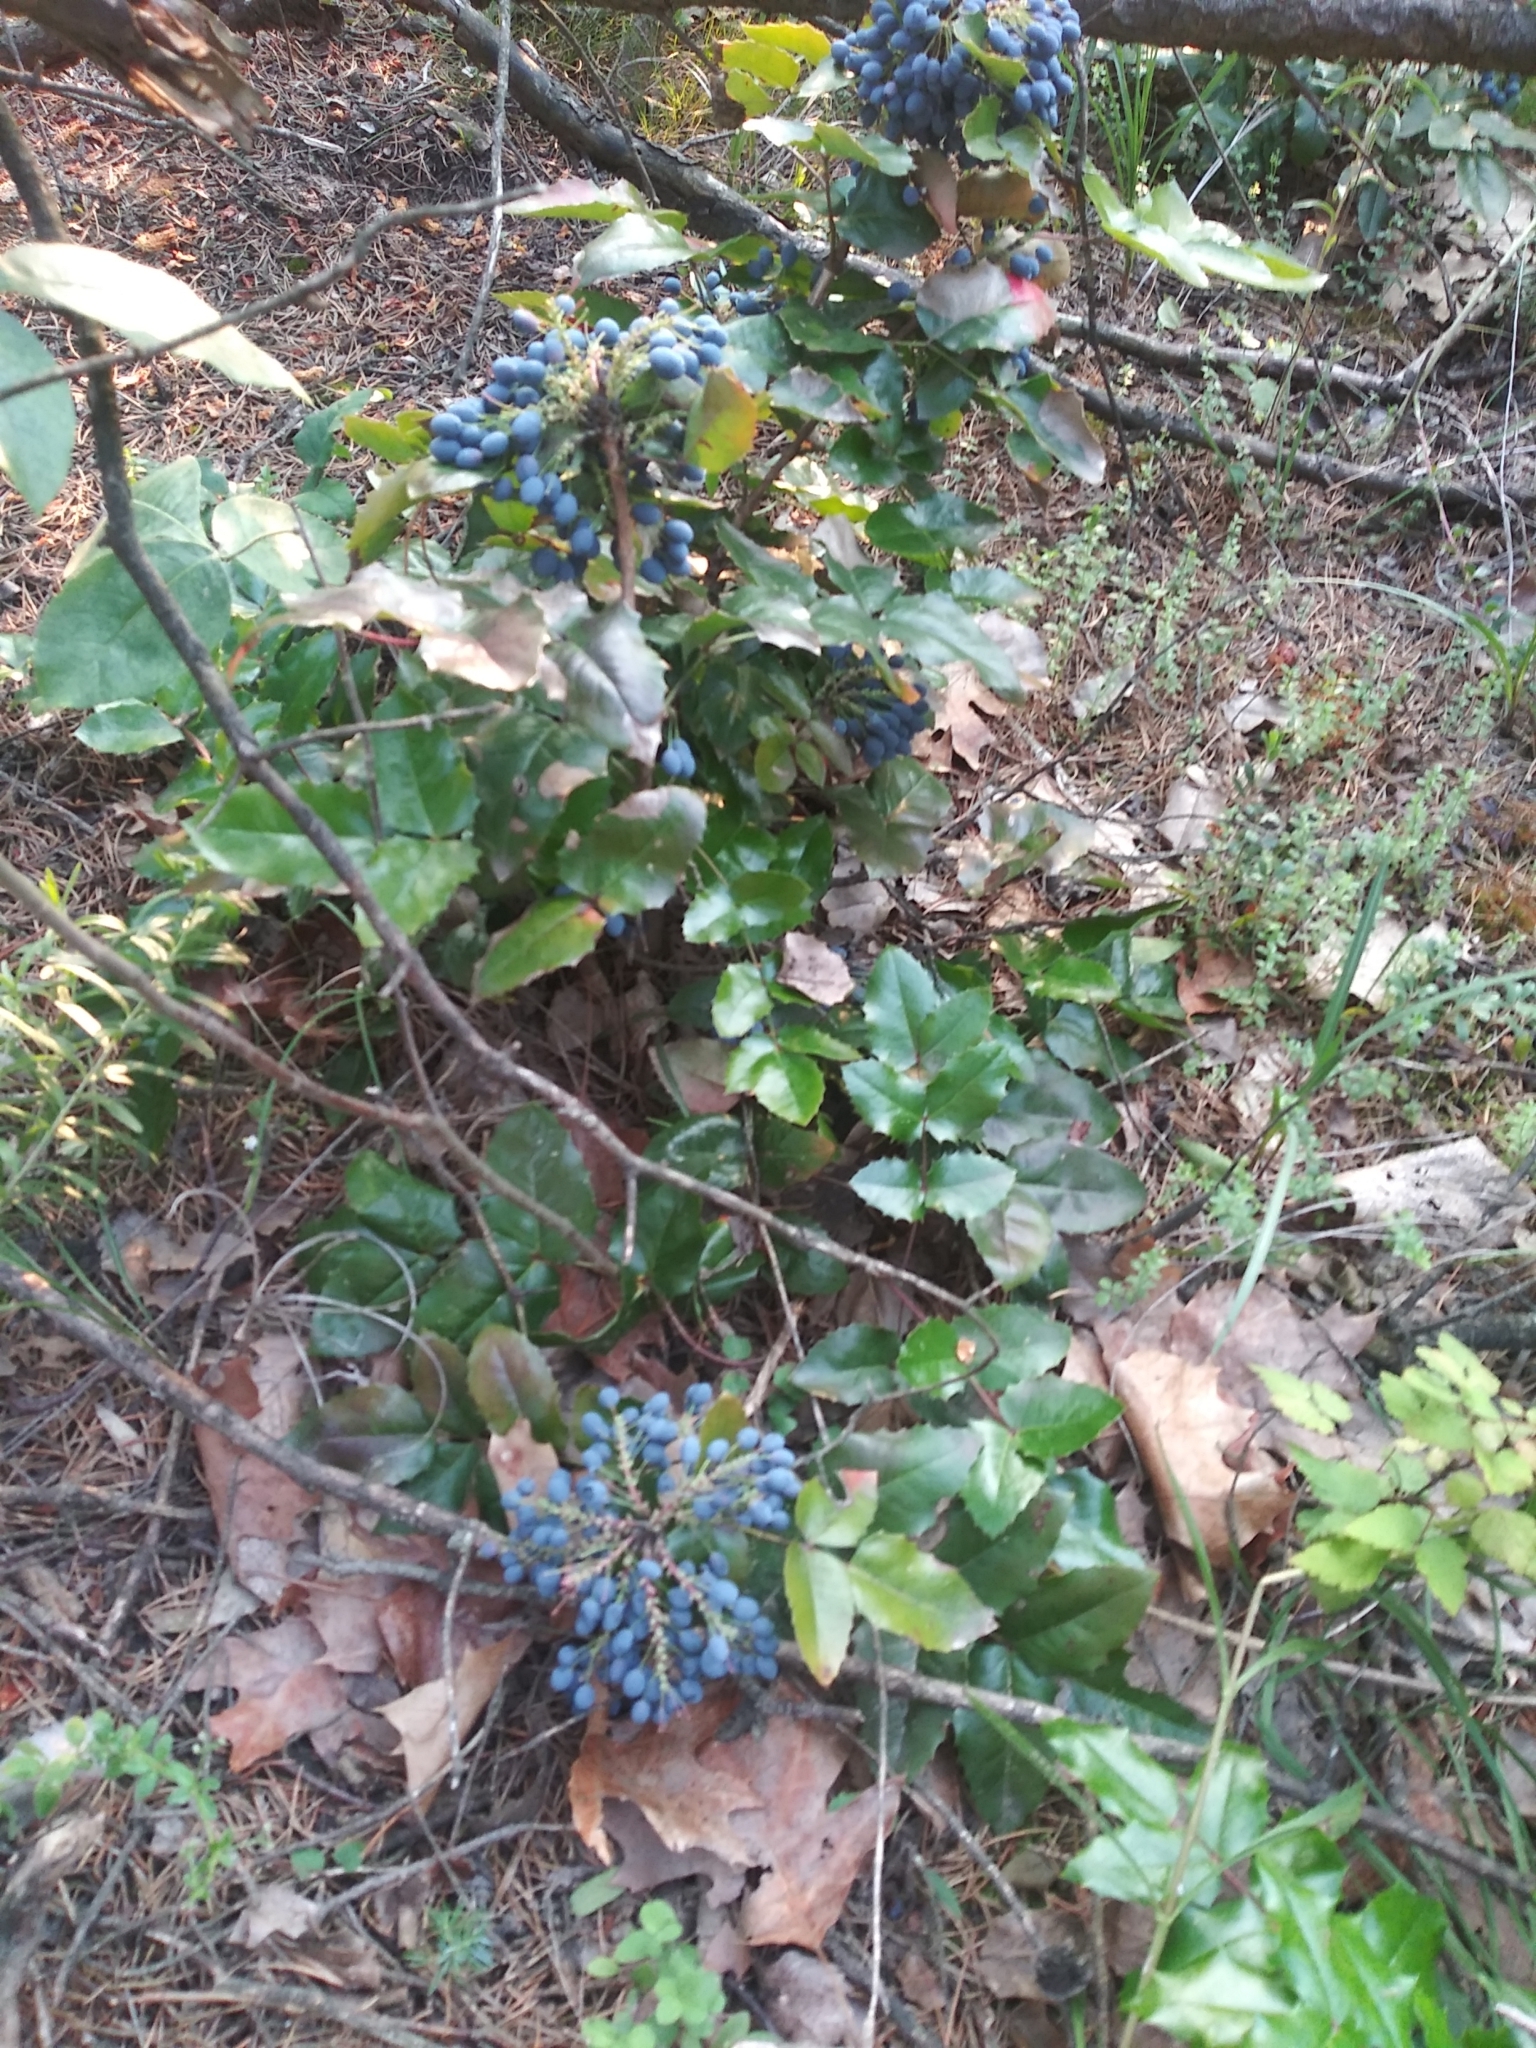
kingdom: Plantae
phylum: Tracheophyta
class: Magnoliopsida
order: Ranunculales
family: Berberidaceae
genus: Mahonia
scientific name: Mahonia aquifolium
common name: Oregon-grape
